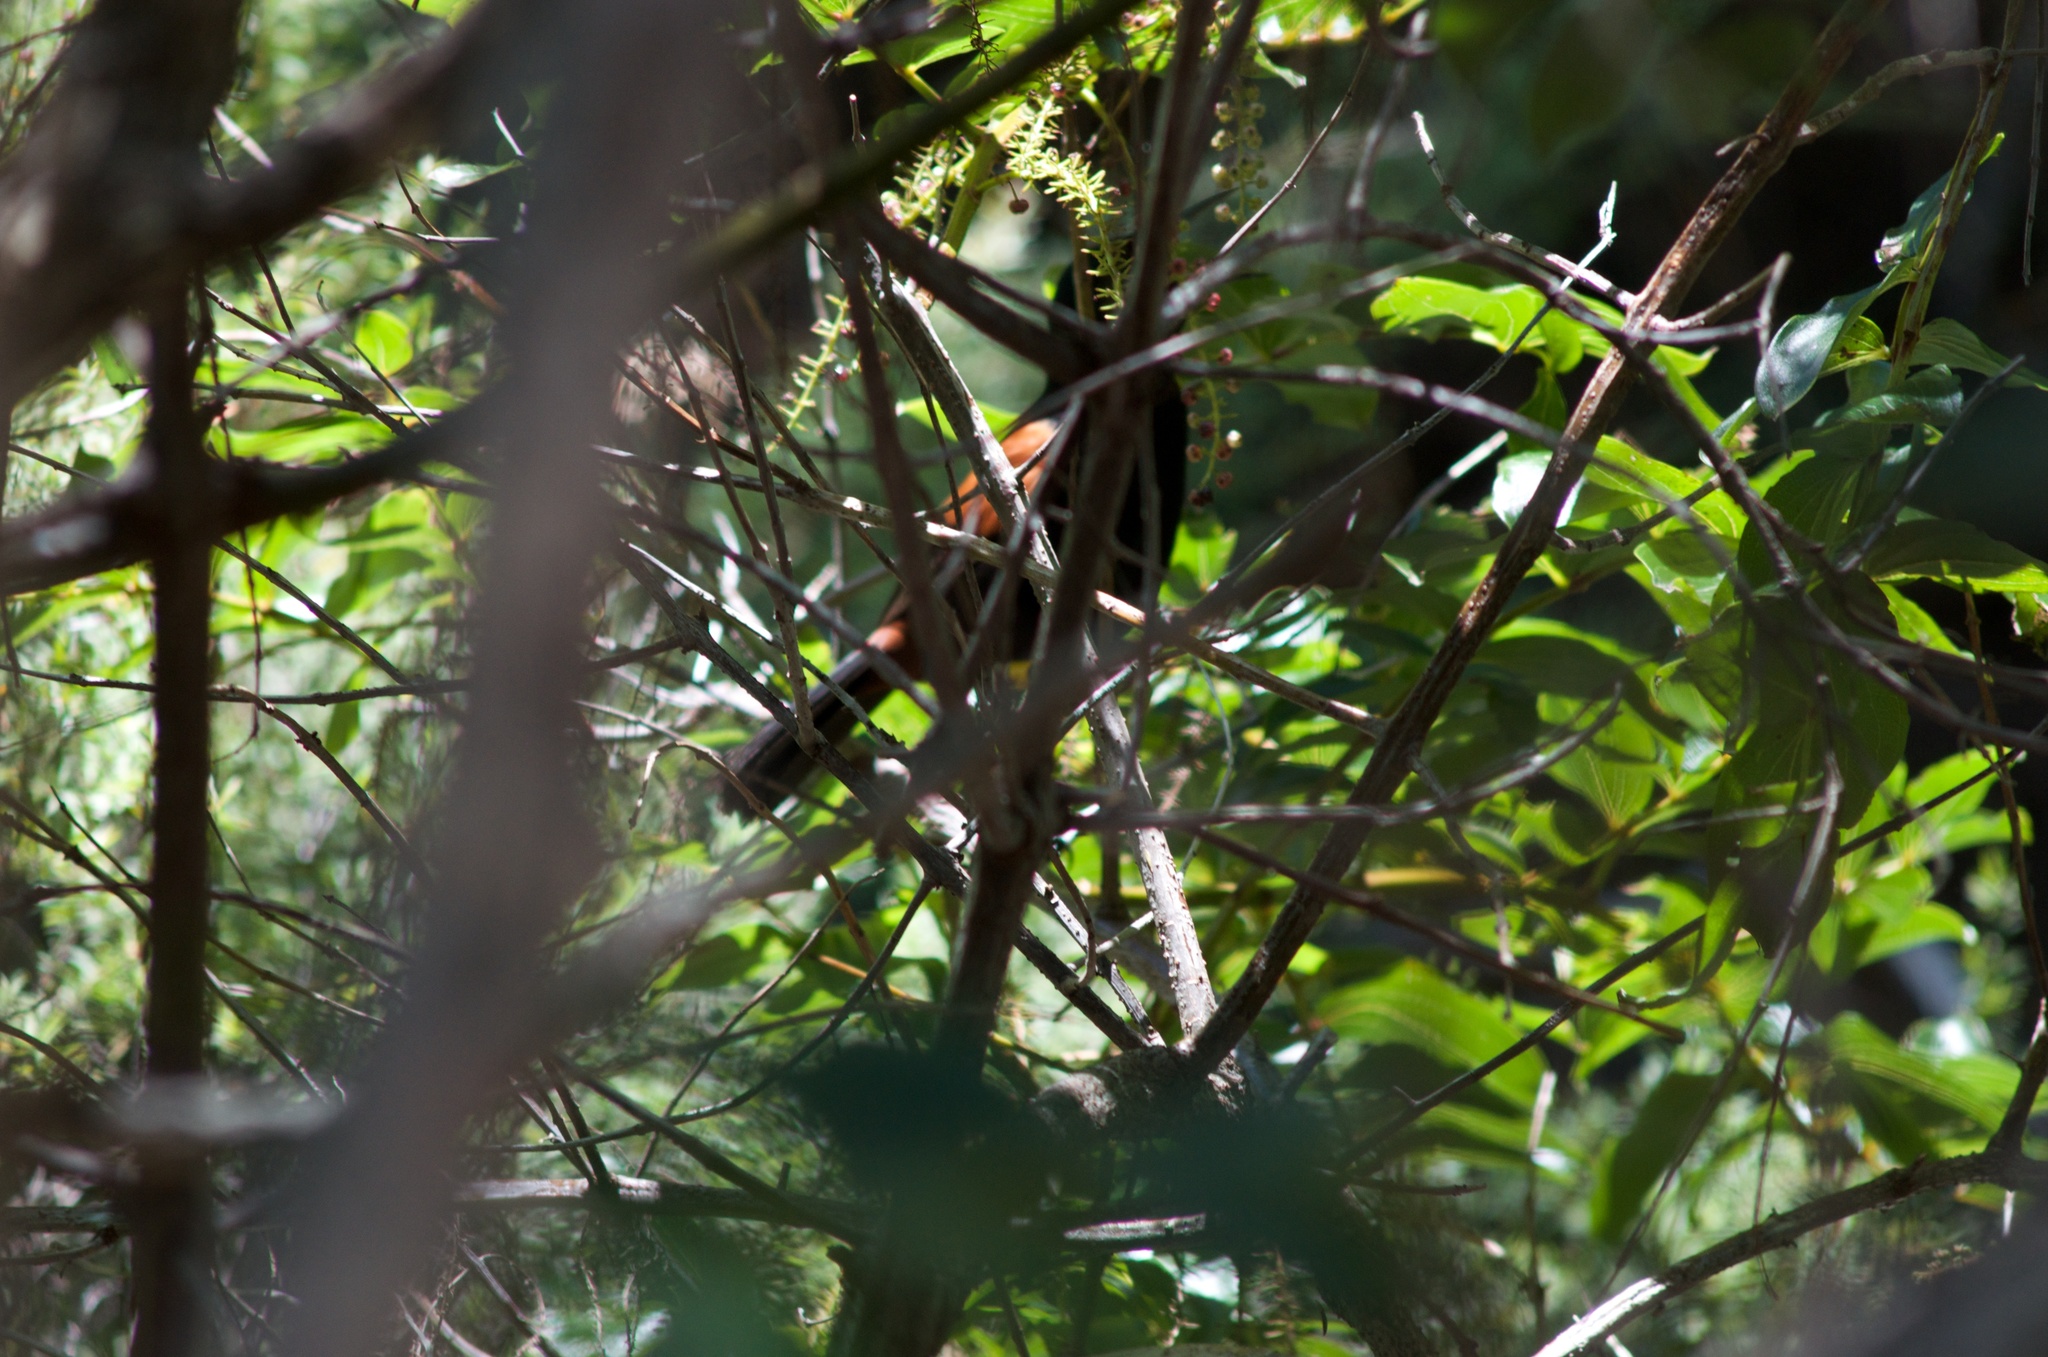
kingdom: Animalia
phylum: Chordata
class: Aves
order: Passeriformes
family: Callaeatidae
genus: Philesturnus
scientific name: Philesturnus carunculatus
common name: South island saddleback
